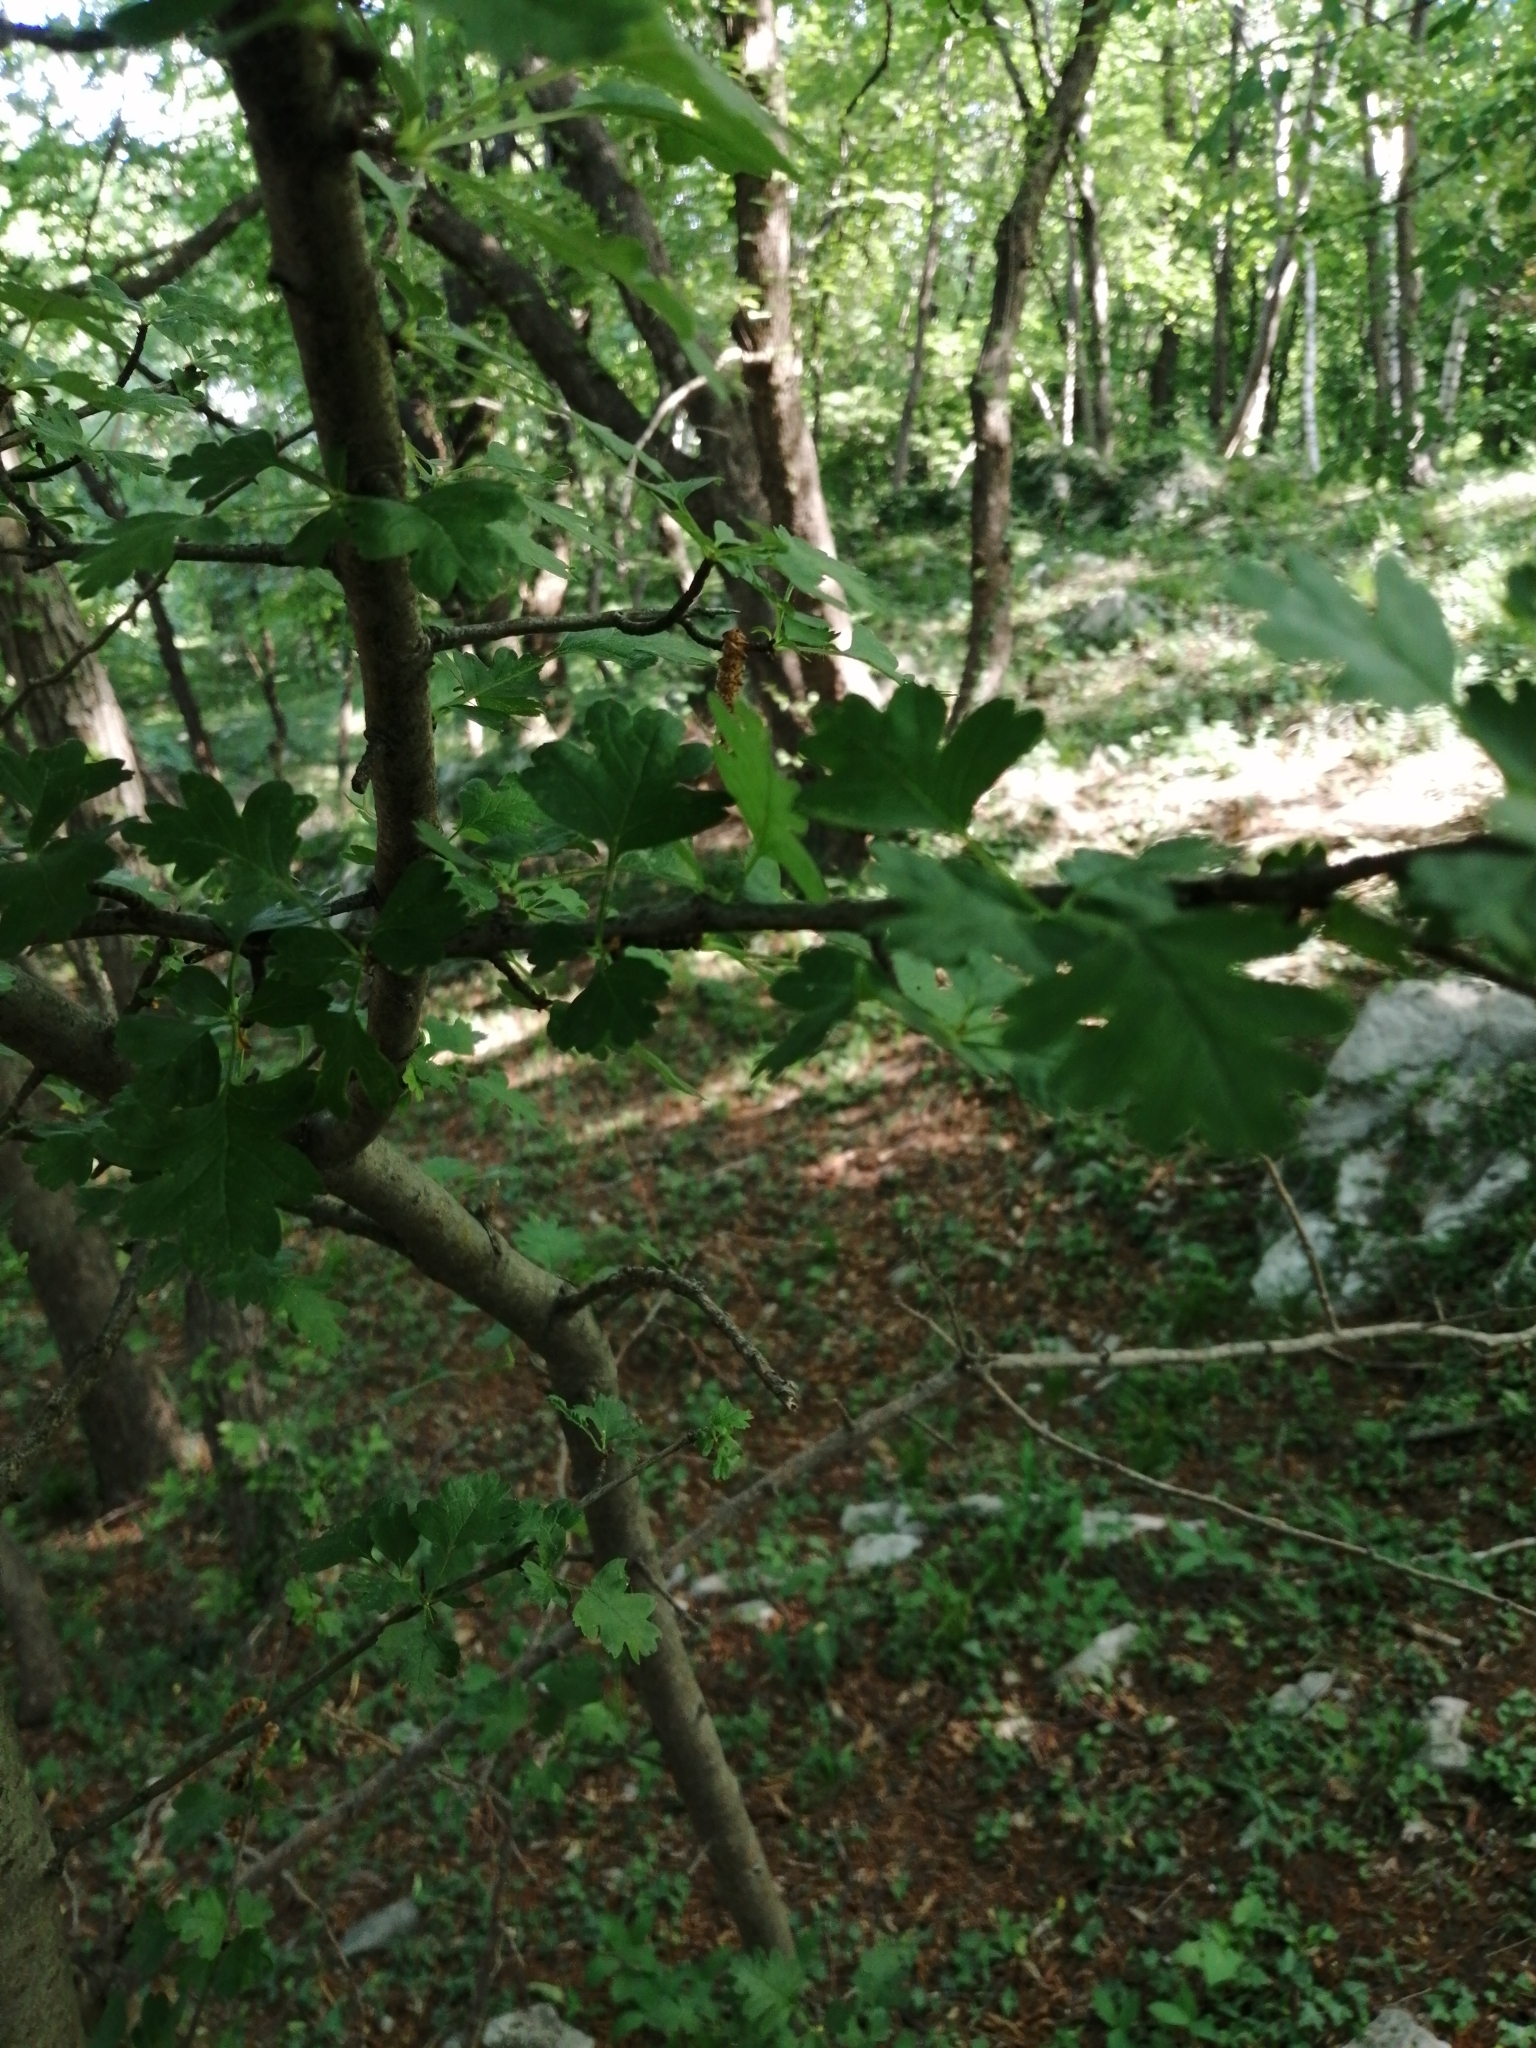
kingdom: Plantae
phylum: Tracheophyta
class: Magnoliopsida
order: Rosales
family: Rosaceae
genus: Crataegus
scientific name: Crataegus monogyna
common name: Hawthorn
